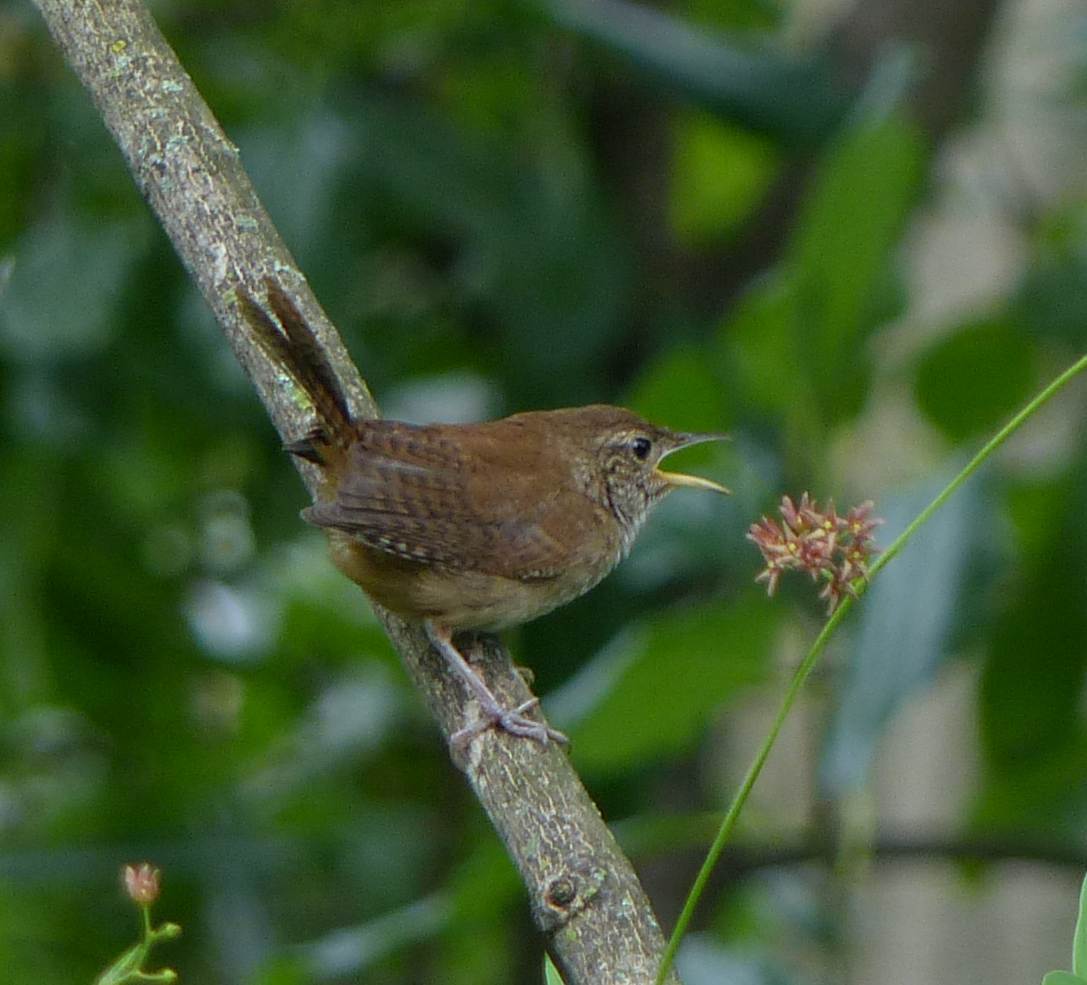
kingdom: Animalia
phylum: Chordata
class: Aves
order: Passeriformes
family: Troglodytidae
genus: Troglodytes
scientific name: Troglodytes aedon
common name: House wren
